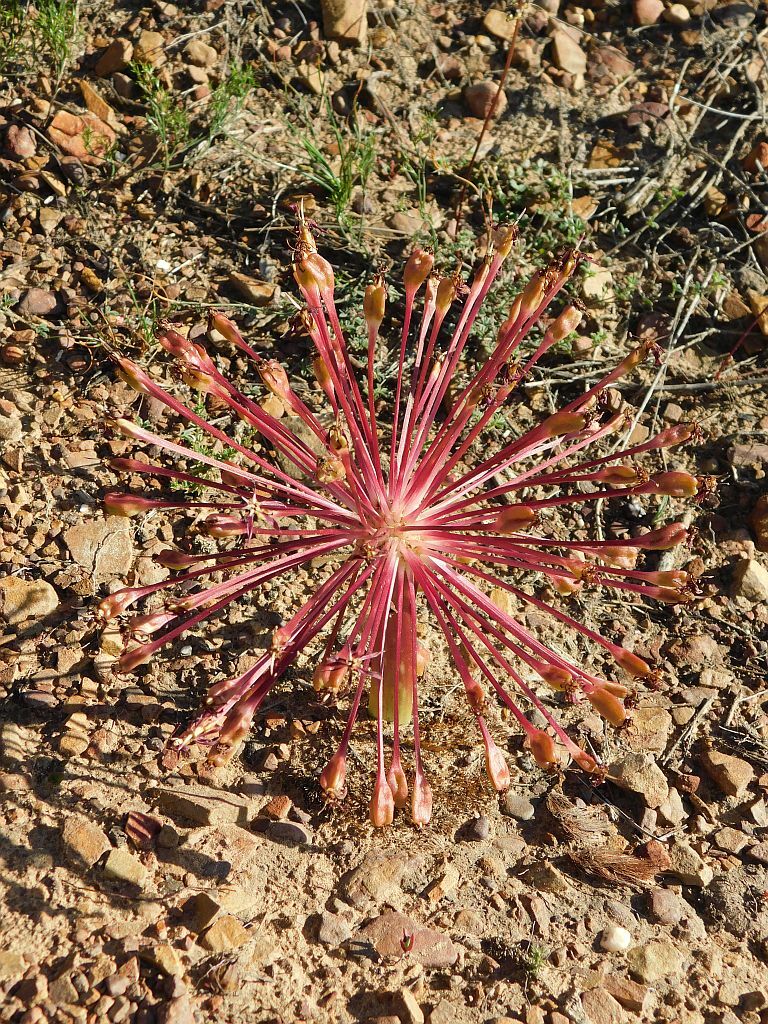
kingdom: Plantae
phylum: Tracheophyta
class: Liliopsida
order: Asparagales
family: Amaryllidaceae
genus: Crossyne
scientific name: Crossyne guttata
